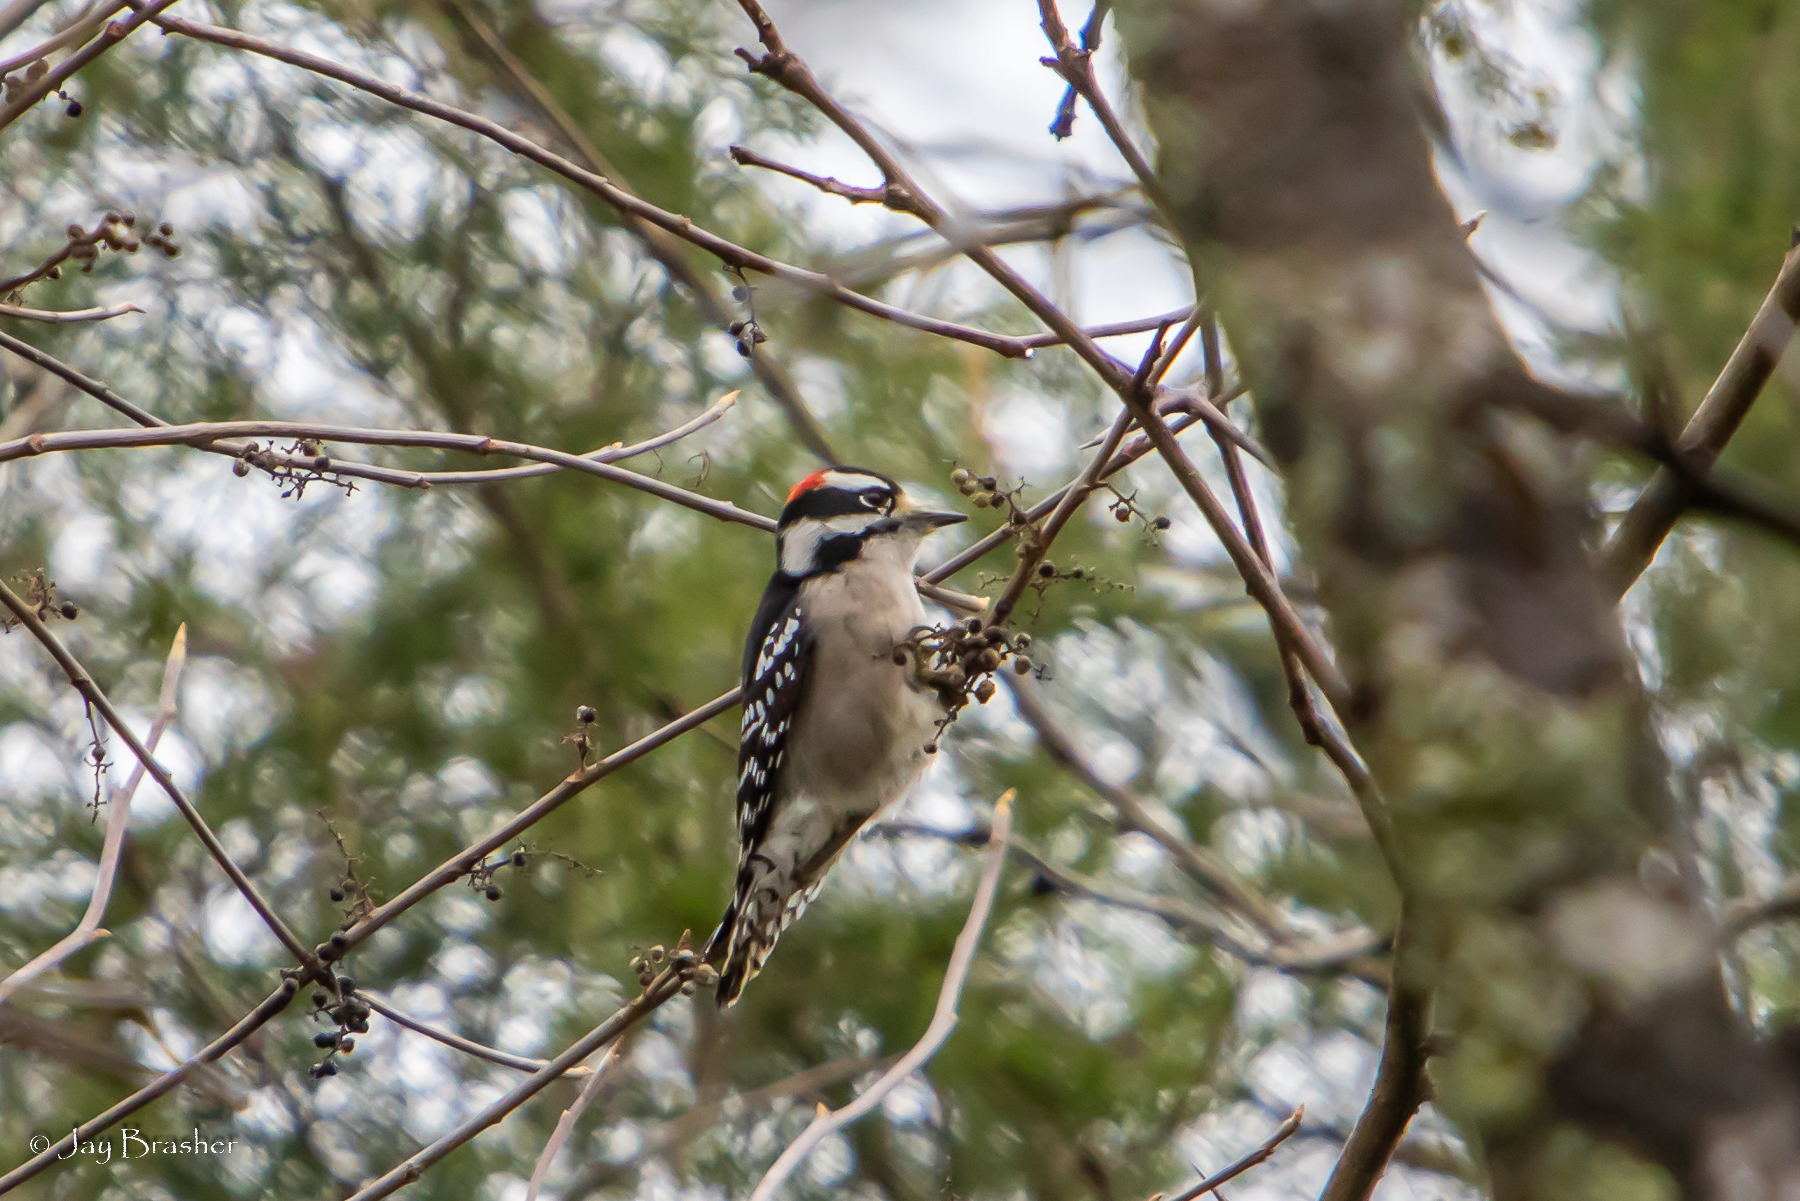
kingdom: Animalia
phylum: Chordata
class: Aves
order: Piciformes
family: Picidae
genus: Dryobates
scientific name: Dryobates pubescens
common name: Downy woodpecker
